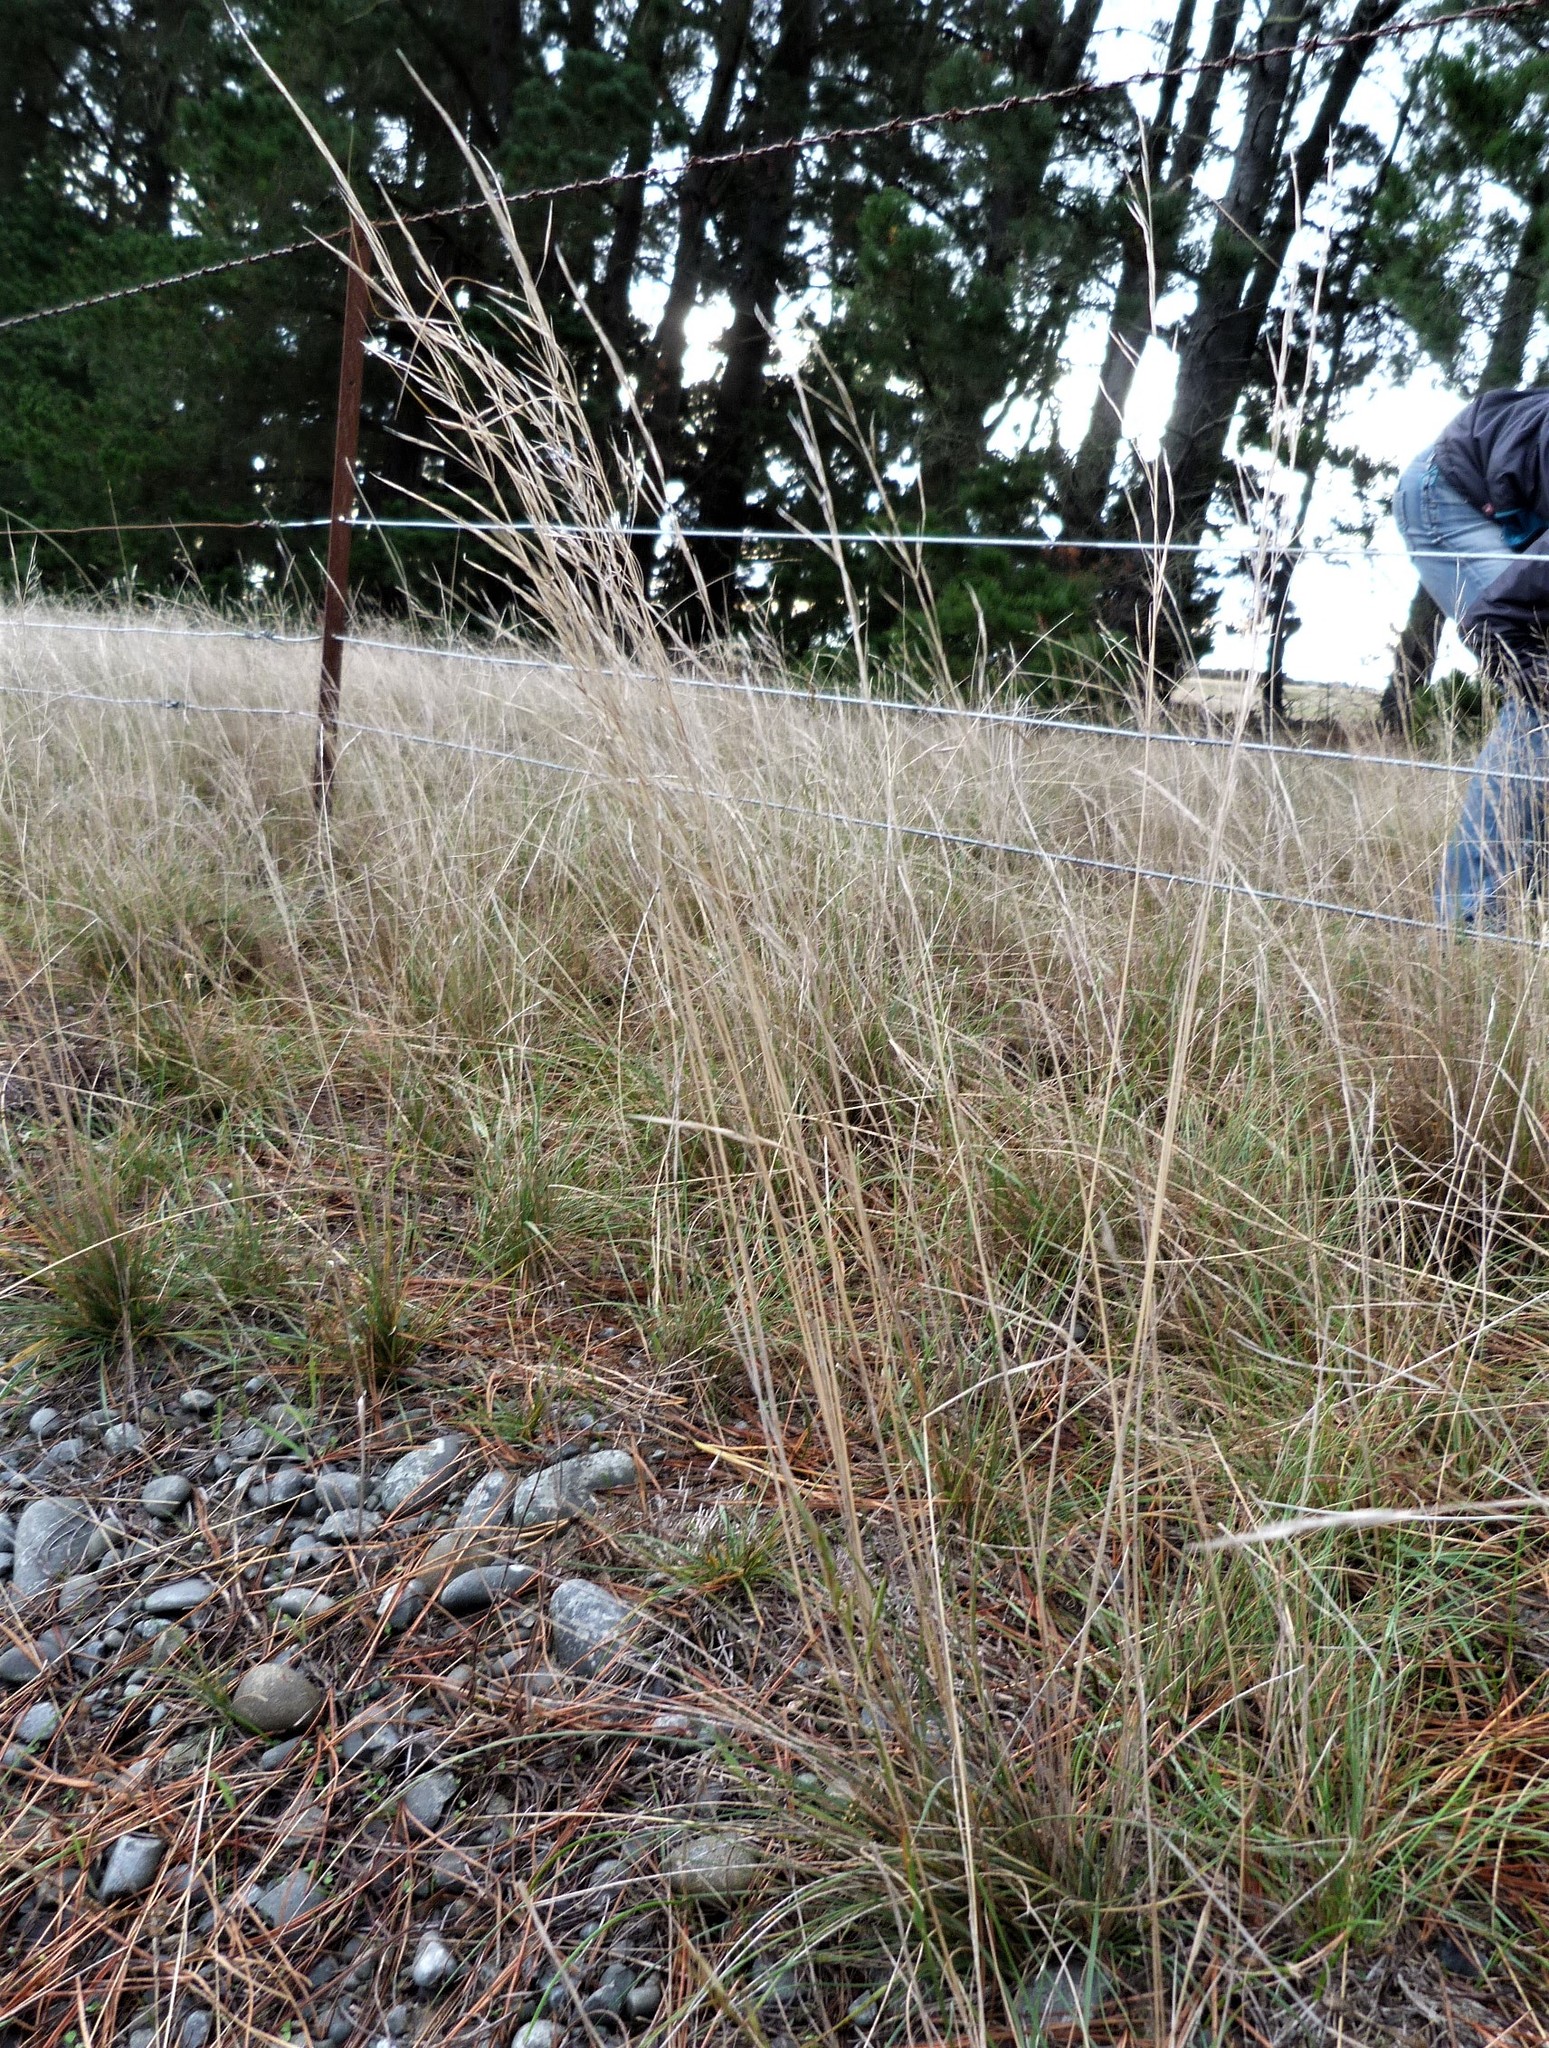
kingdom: Plantae
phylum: Tracheophyta
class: Liliopsida
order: Poales
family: Poaceae
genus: Austrostipa
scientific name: Austrostipa nodosa
